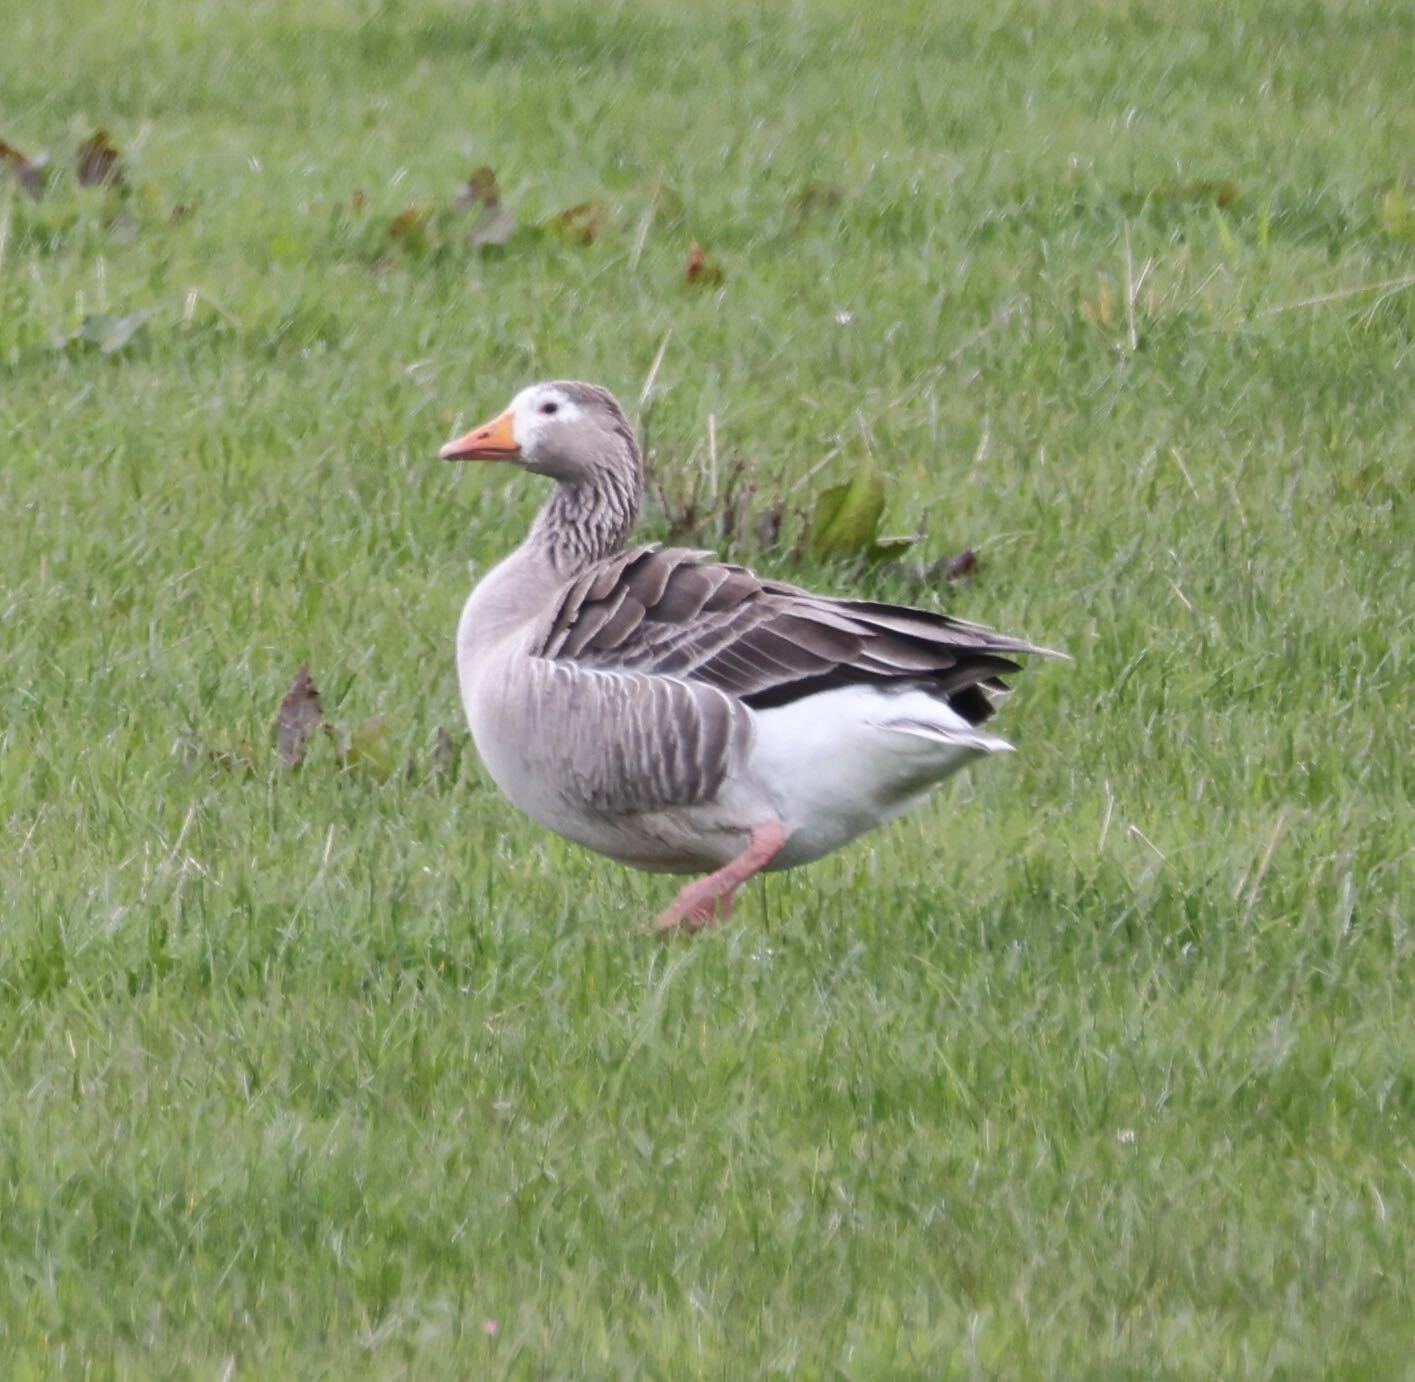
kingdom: Animalia
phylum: Chordata
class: Aves
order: Anseriformes
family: Anatidae
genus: Anser
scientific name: Anser anser
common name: Greylag goose
